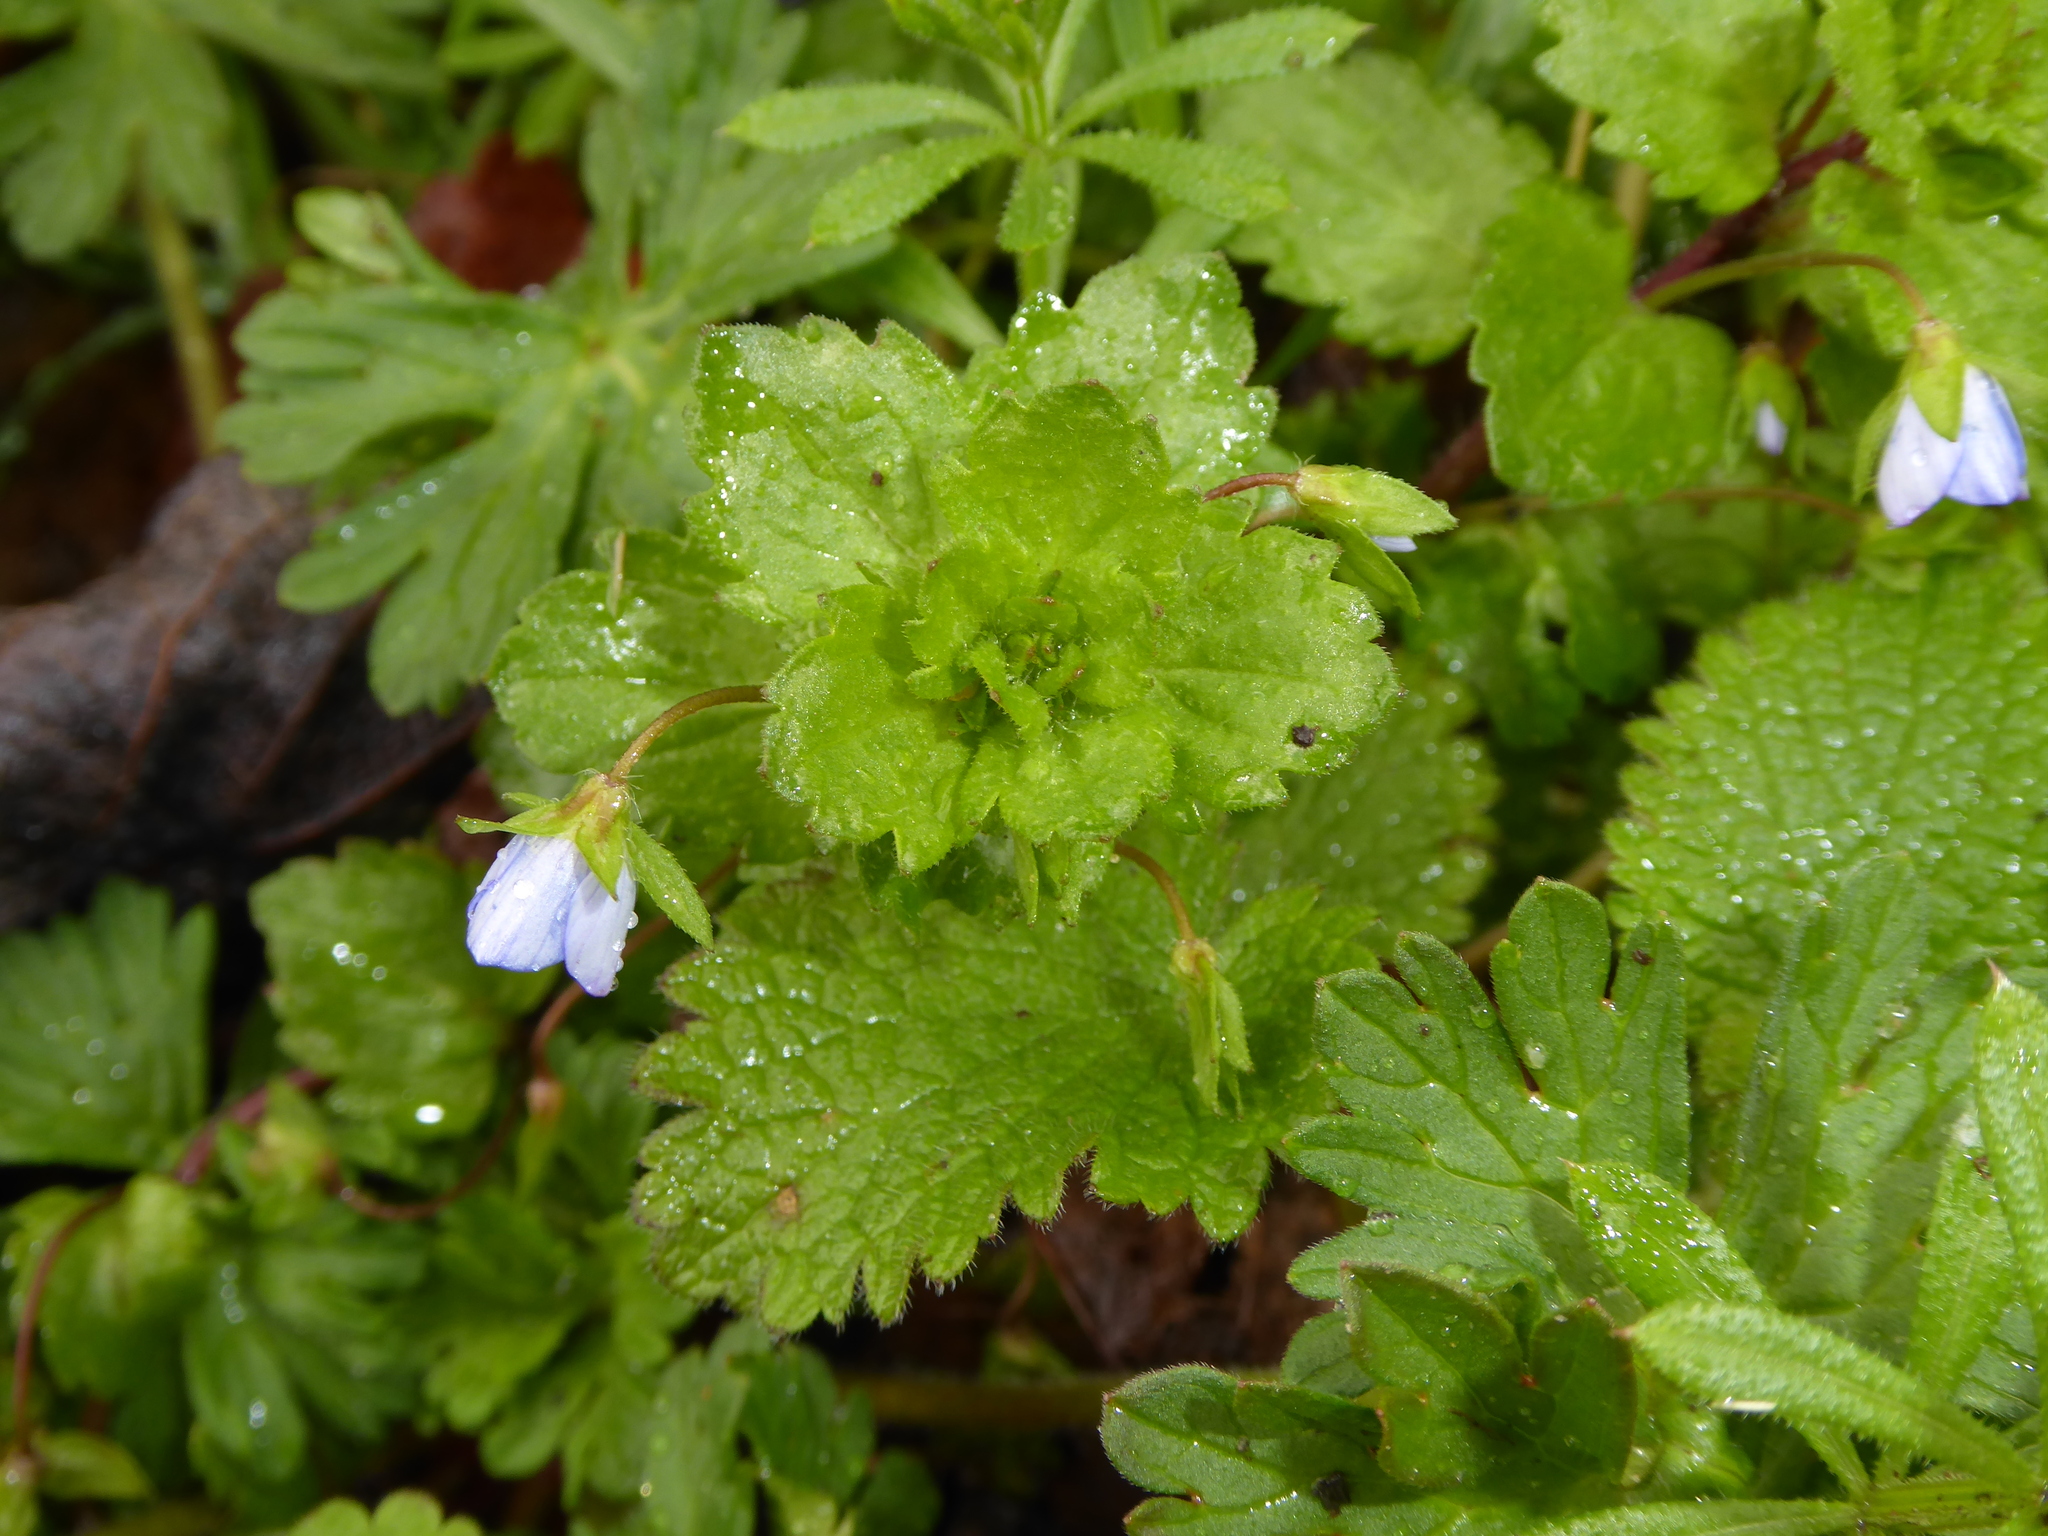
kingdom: Plantae
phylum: Tracheophyta
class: Magnoliopsida
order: Lamiales
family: Plantaginaceae
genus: Veronica
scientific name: Veronica persica
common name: Common field-speedwell
